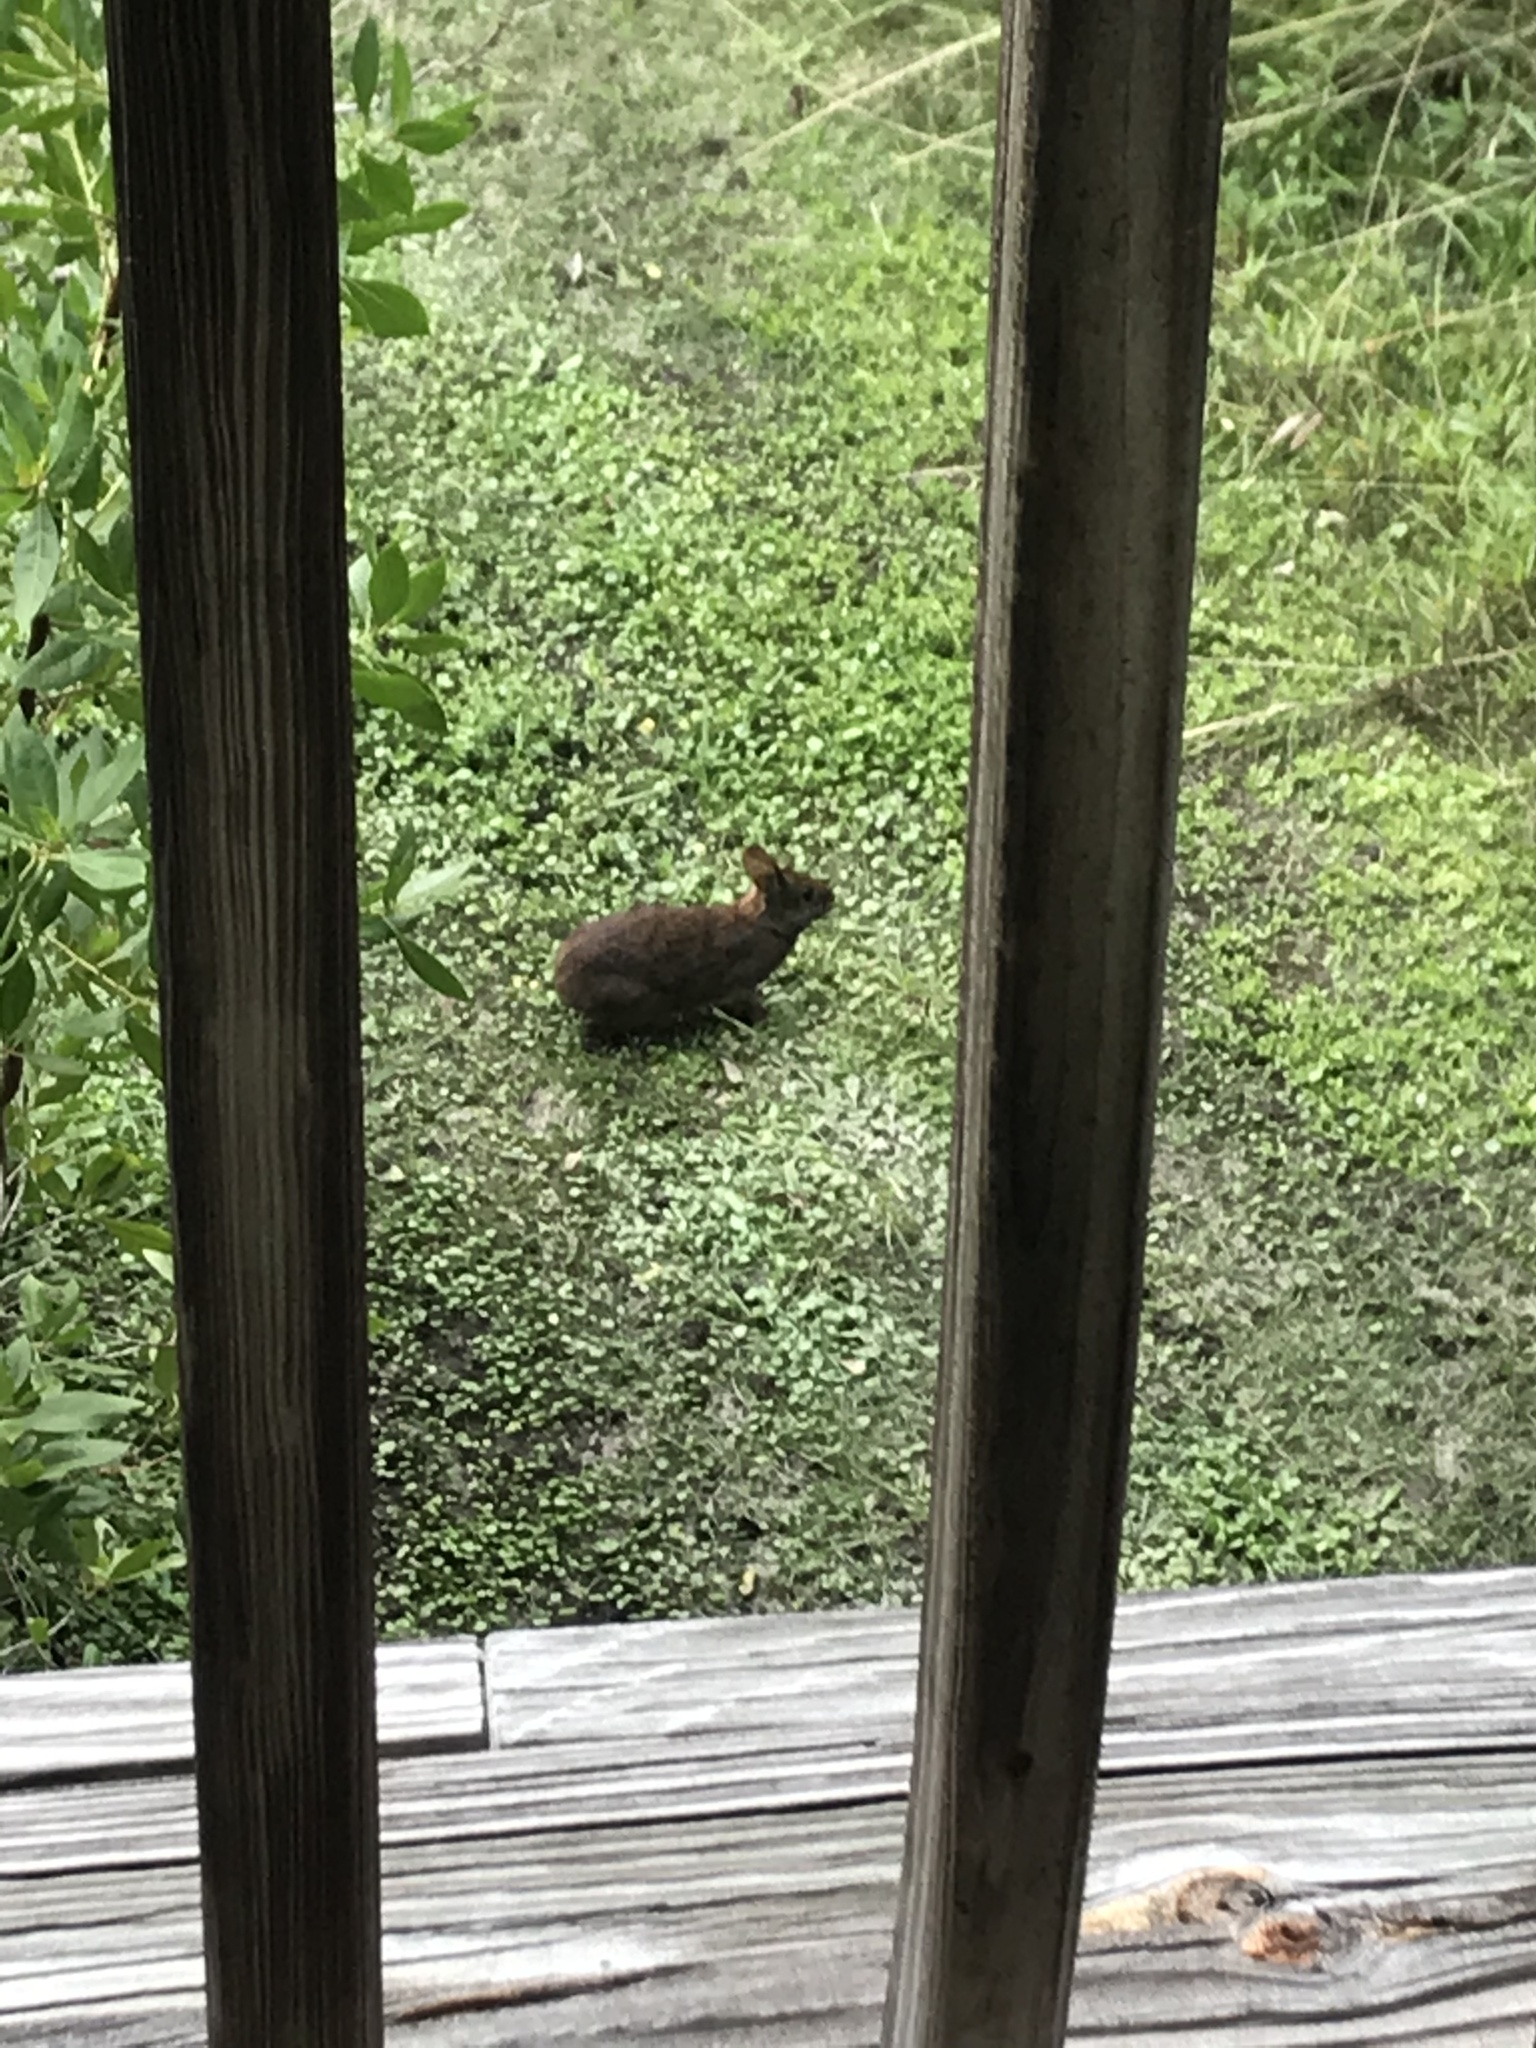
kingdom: Animalia
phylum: Chordata
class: Mammalia
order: Lagomorpha
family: Leporidae
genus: Sylvilagus
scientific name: Sylvilagus palustris
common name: Marsh rabbit
